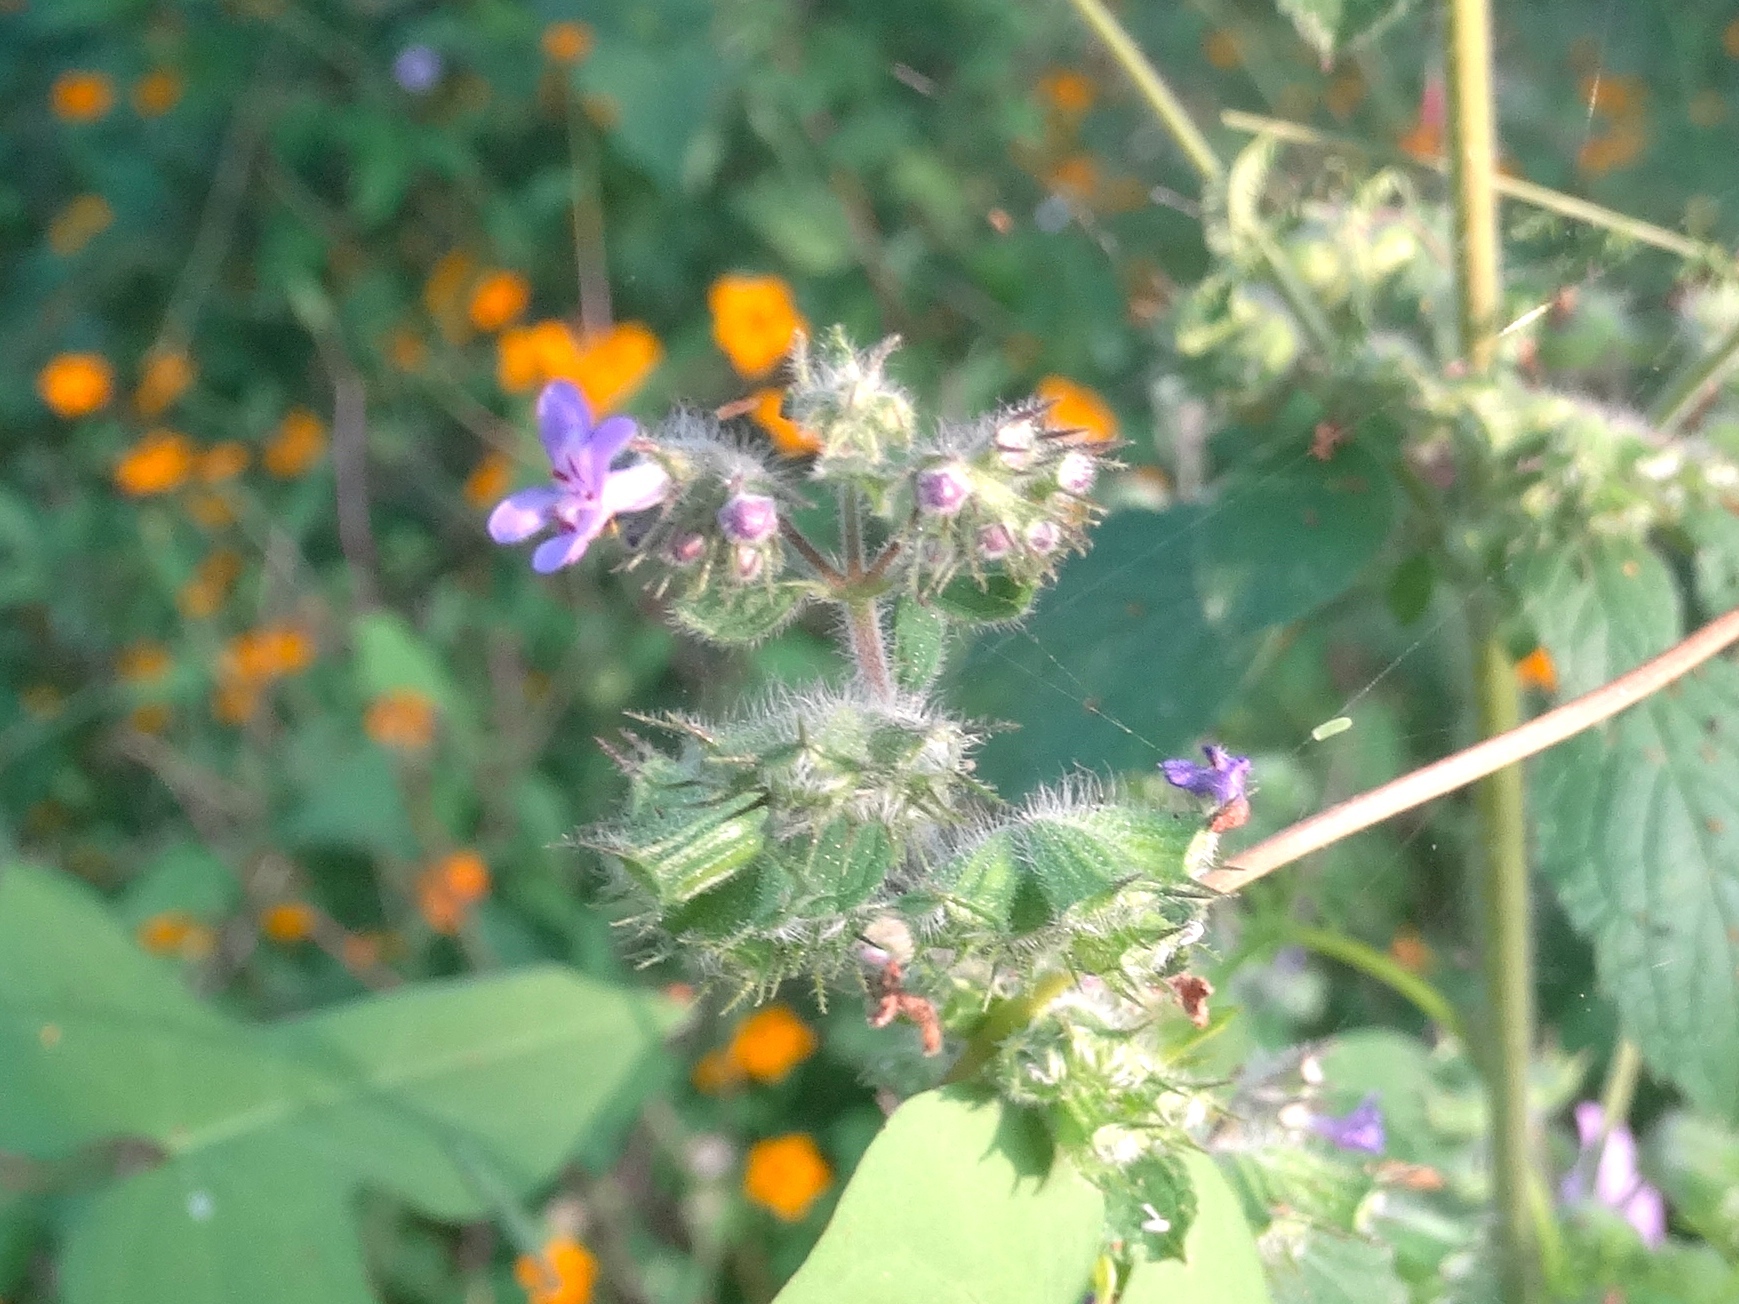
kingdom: Plantae
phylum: Tracheophyta
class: Magnoliopsida
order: Lamiales
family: Lamiaceae
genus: Mesosphaerum
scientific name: Mesosphaerum suaveolens
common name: Pignut
